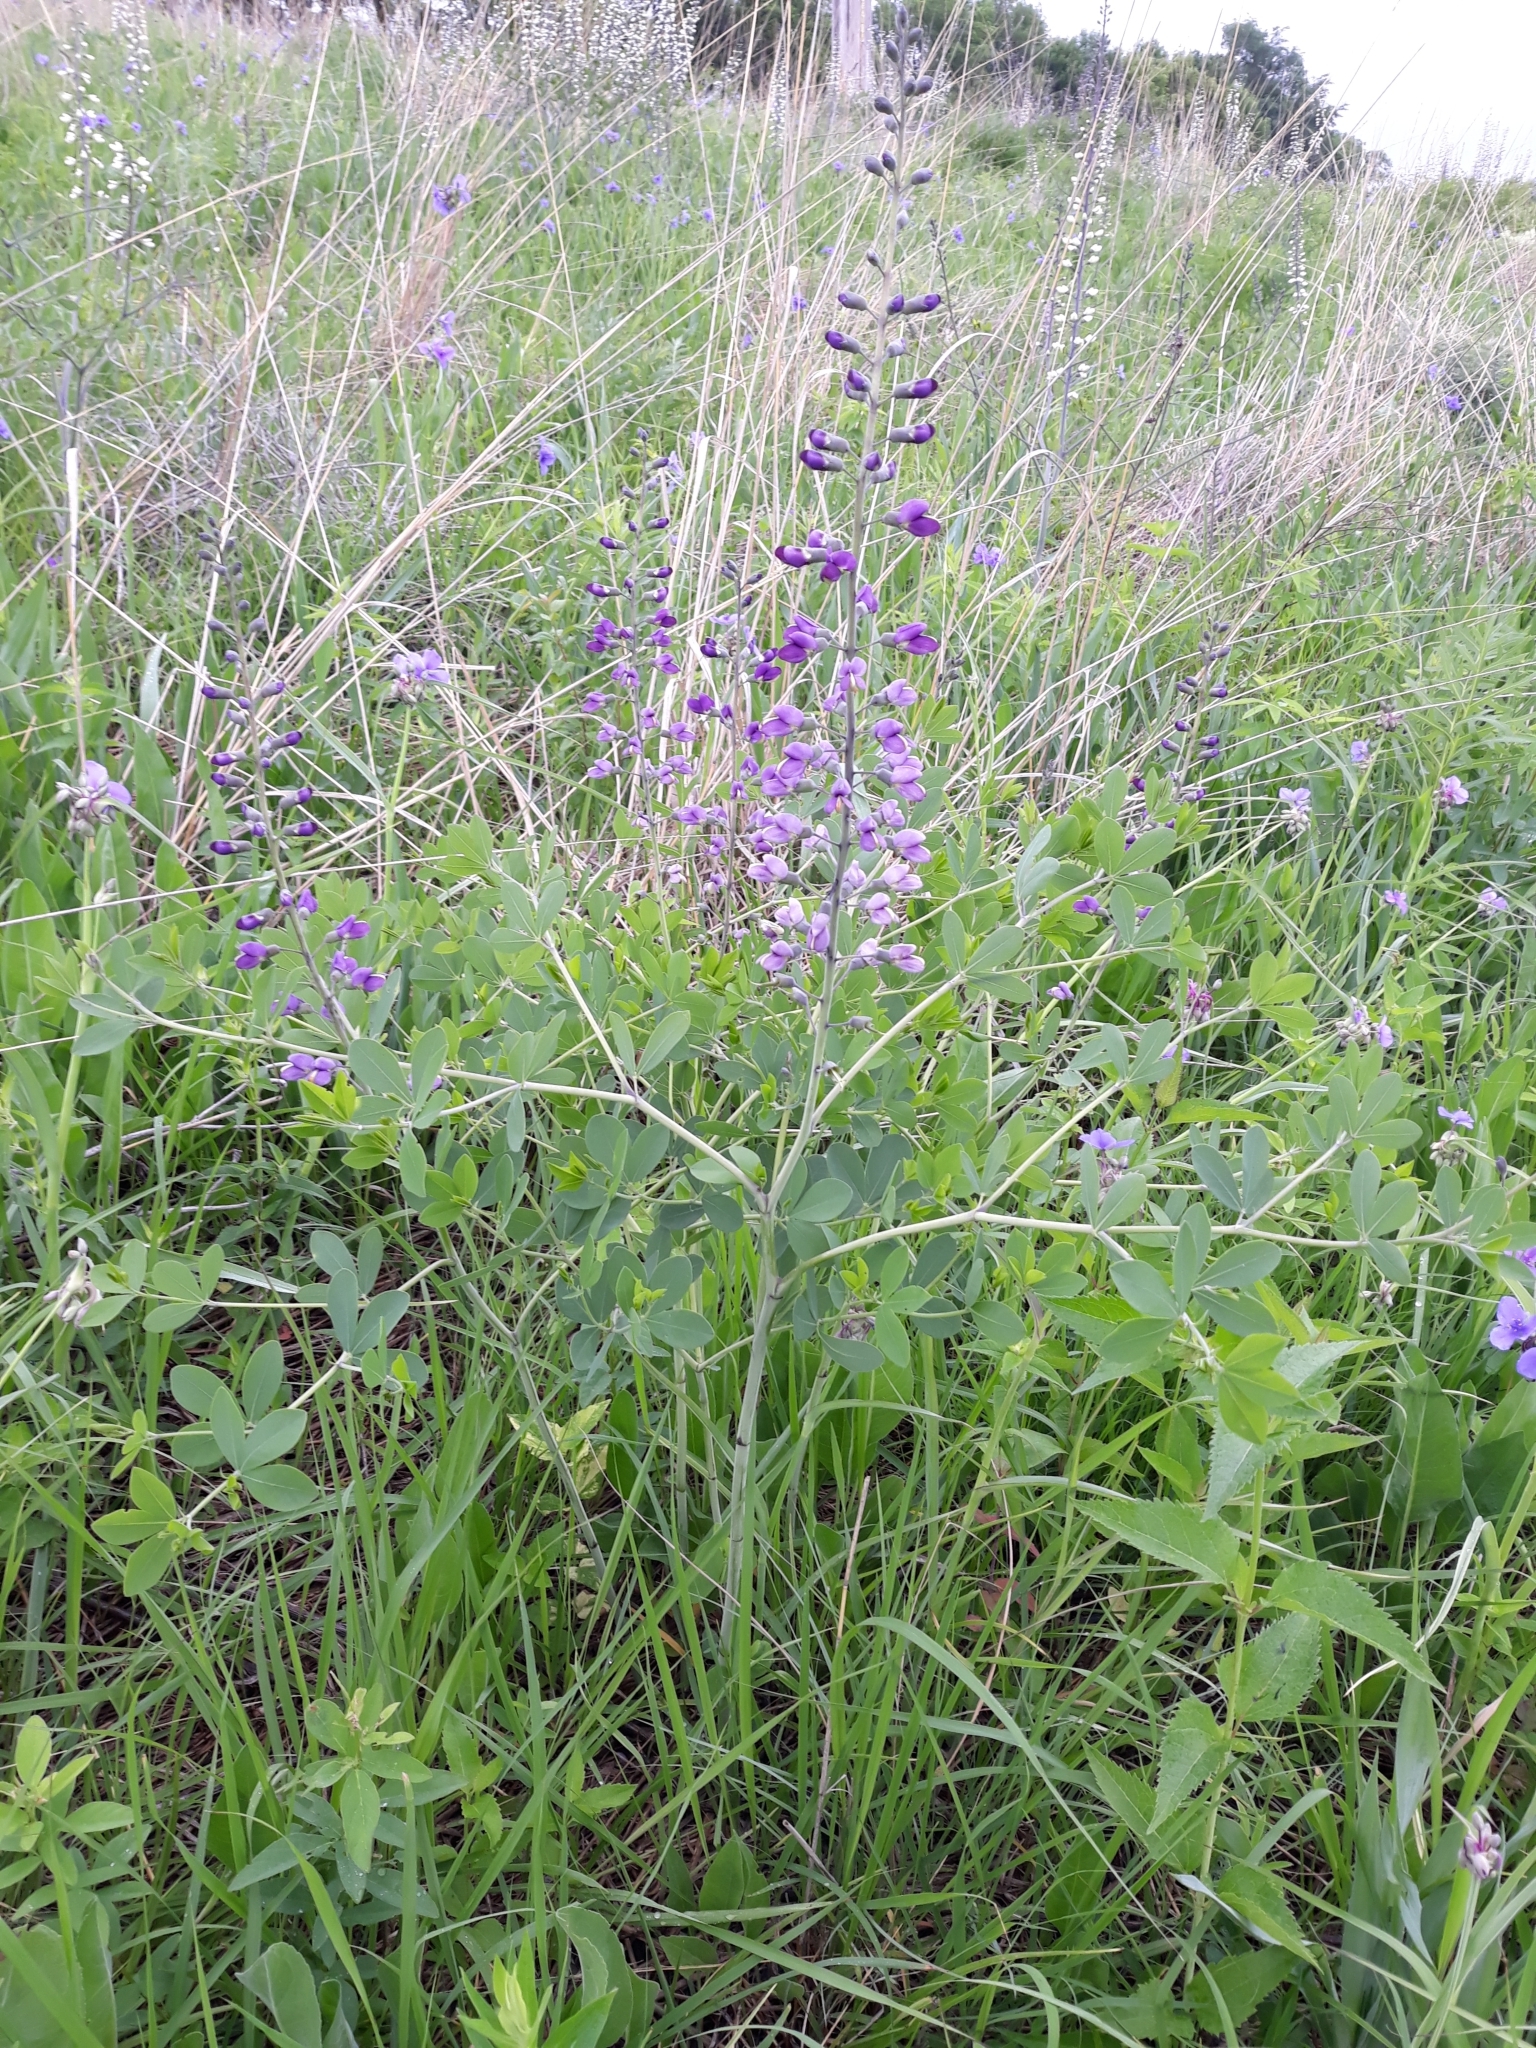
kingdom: Plantae
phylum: Tracheophyta
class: Magnoliopsida
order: Fabales
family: Fabaceae
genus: Baptisia
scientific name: Baptisia australis
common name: Blue false indigo
